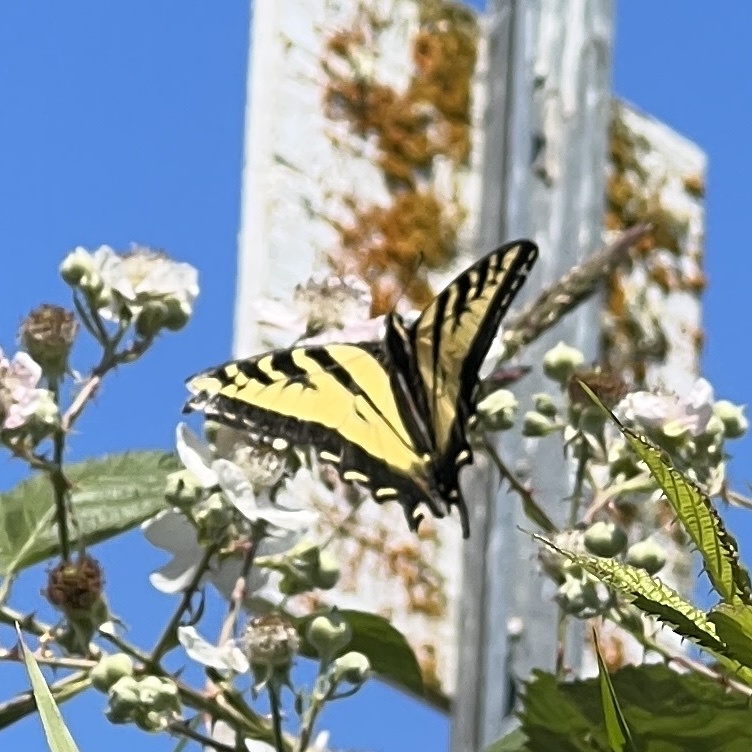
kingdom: Animalia
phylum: Arthropoda
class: Insecta
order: Lepidoptera
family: Papilionidae
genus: Papilio
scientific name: Papilio rutulus
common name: Western tiger swallowtail
